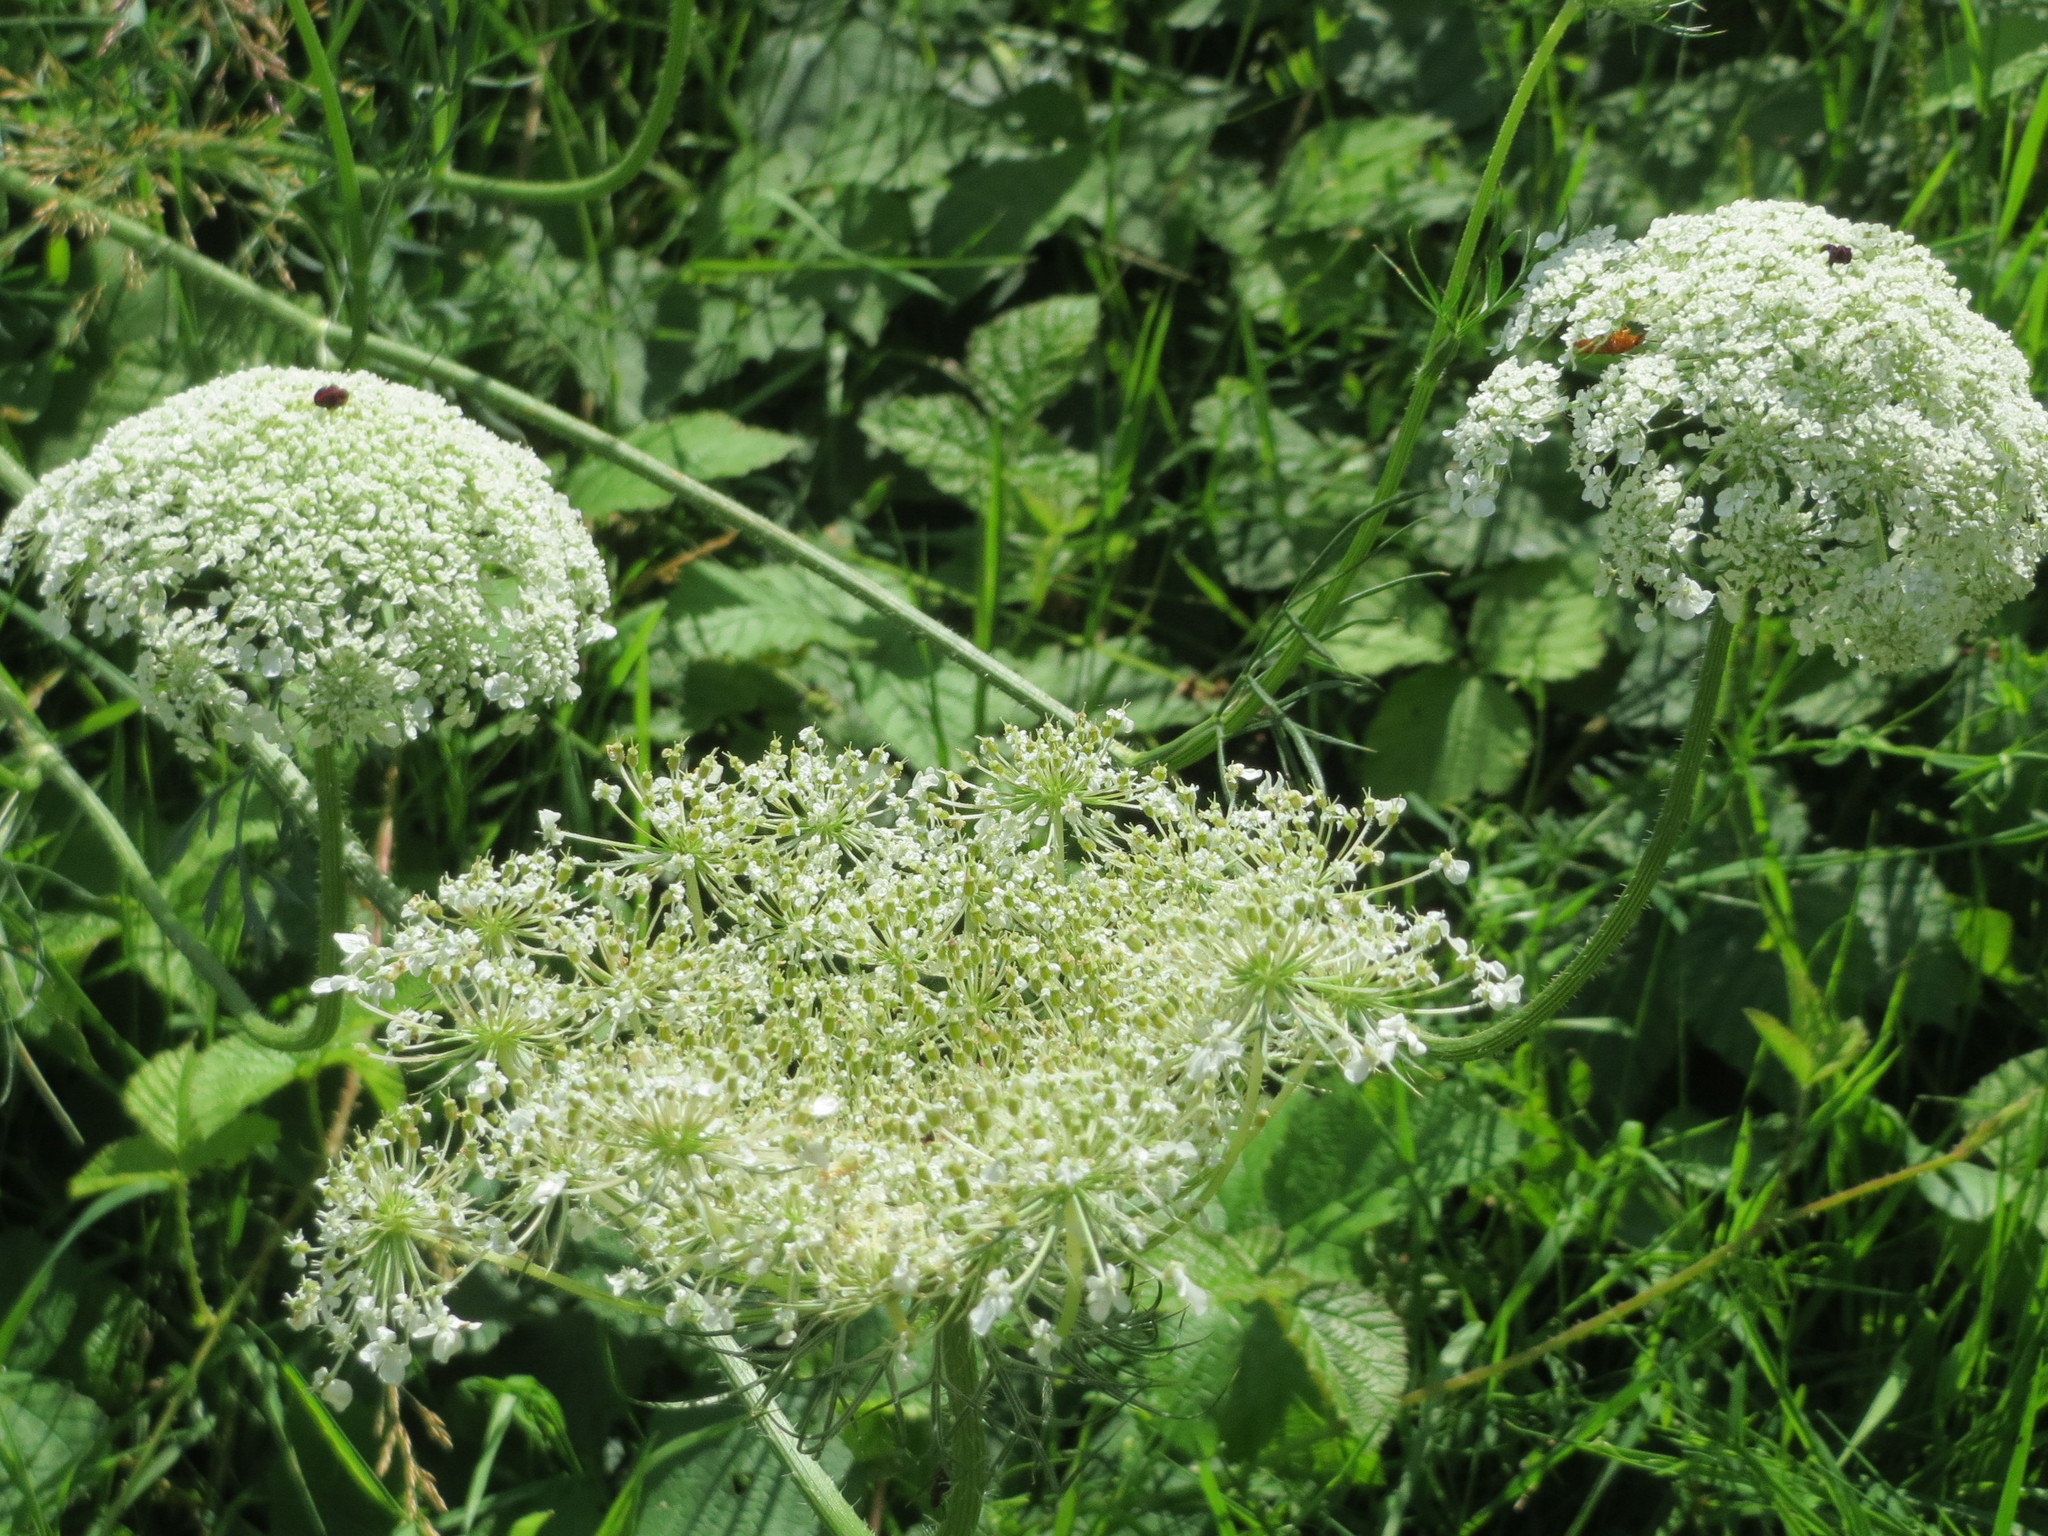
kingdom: Plantae
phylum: Tracheophyta
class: Magnoliopsida
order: Apiales
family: Apiaceae
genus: Daucus
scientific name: Daucus carota
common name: Wild carrot
